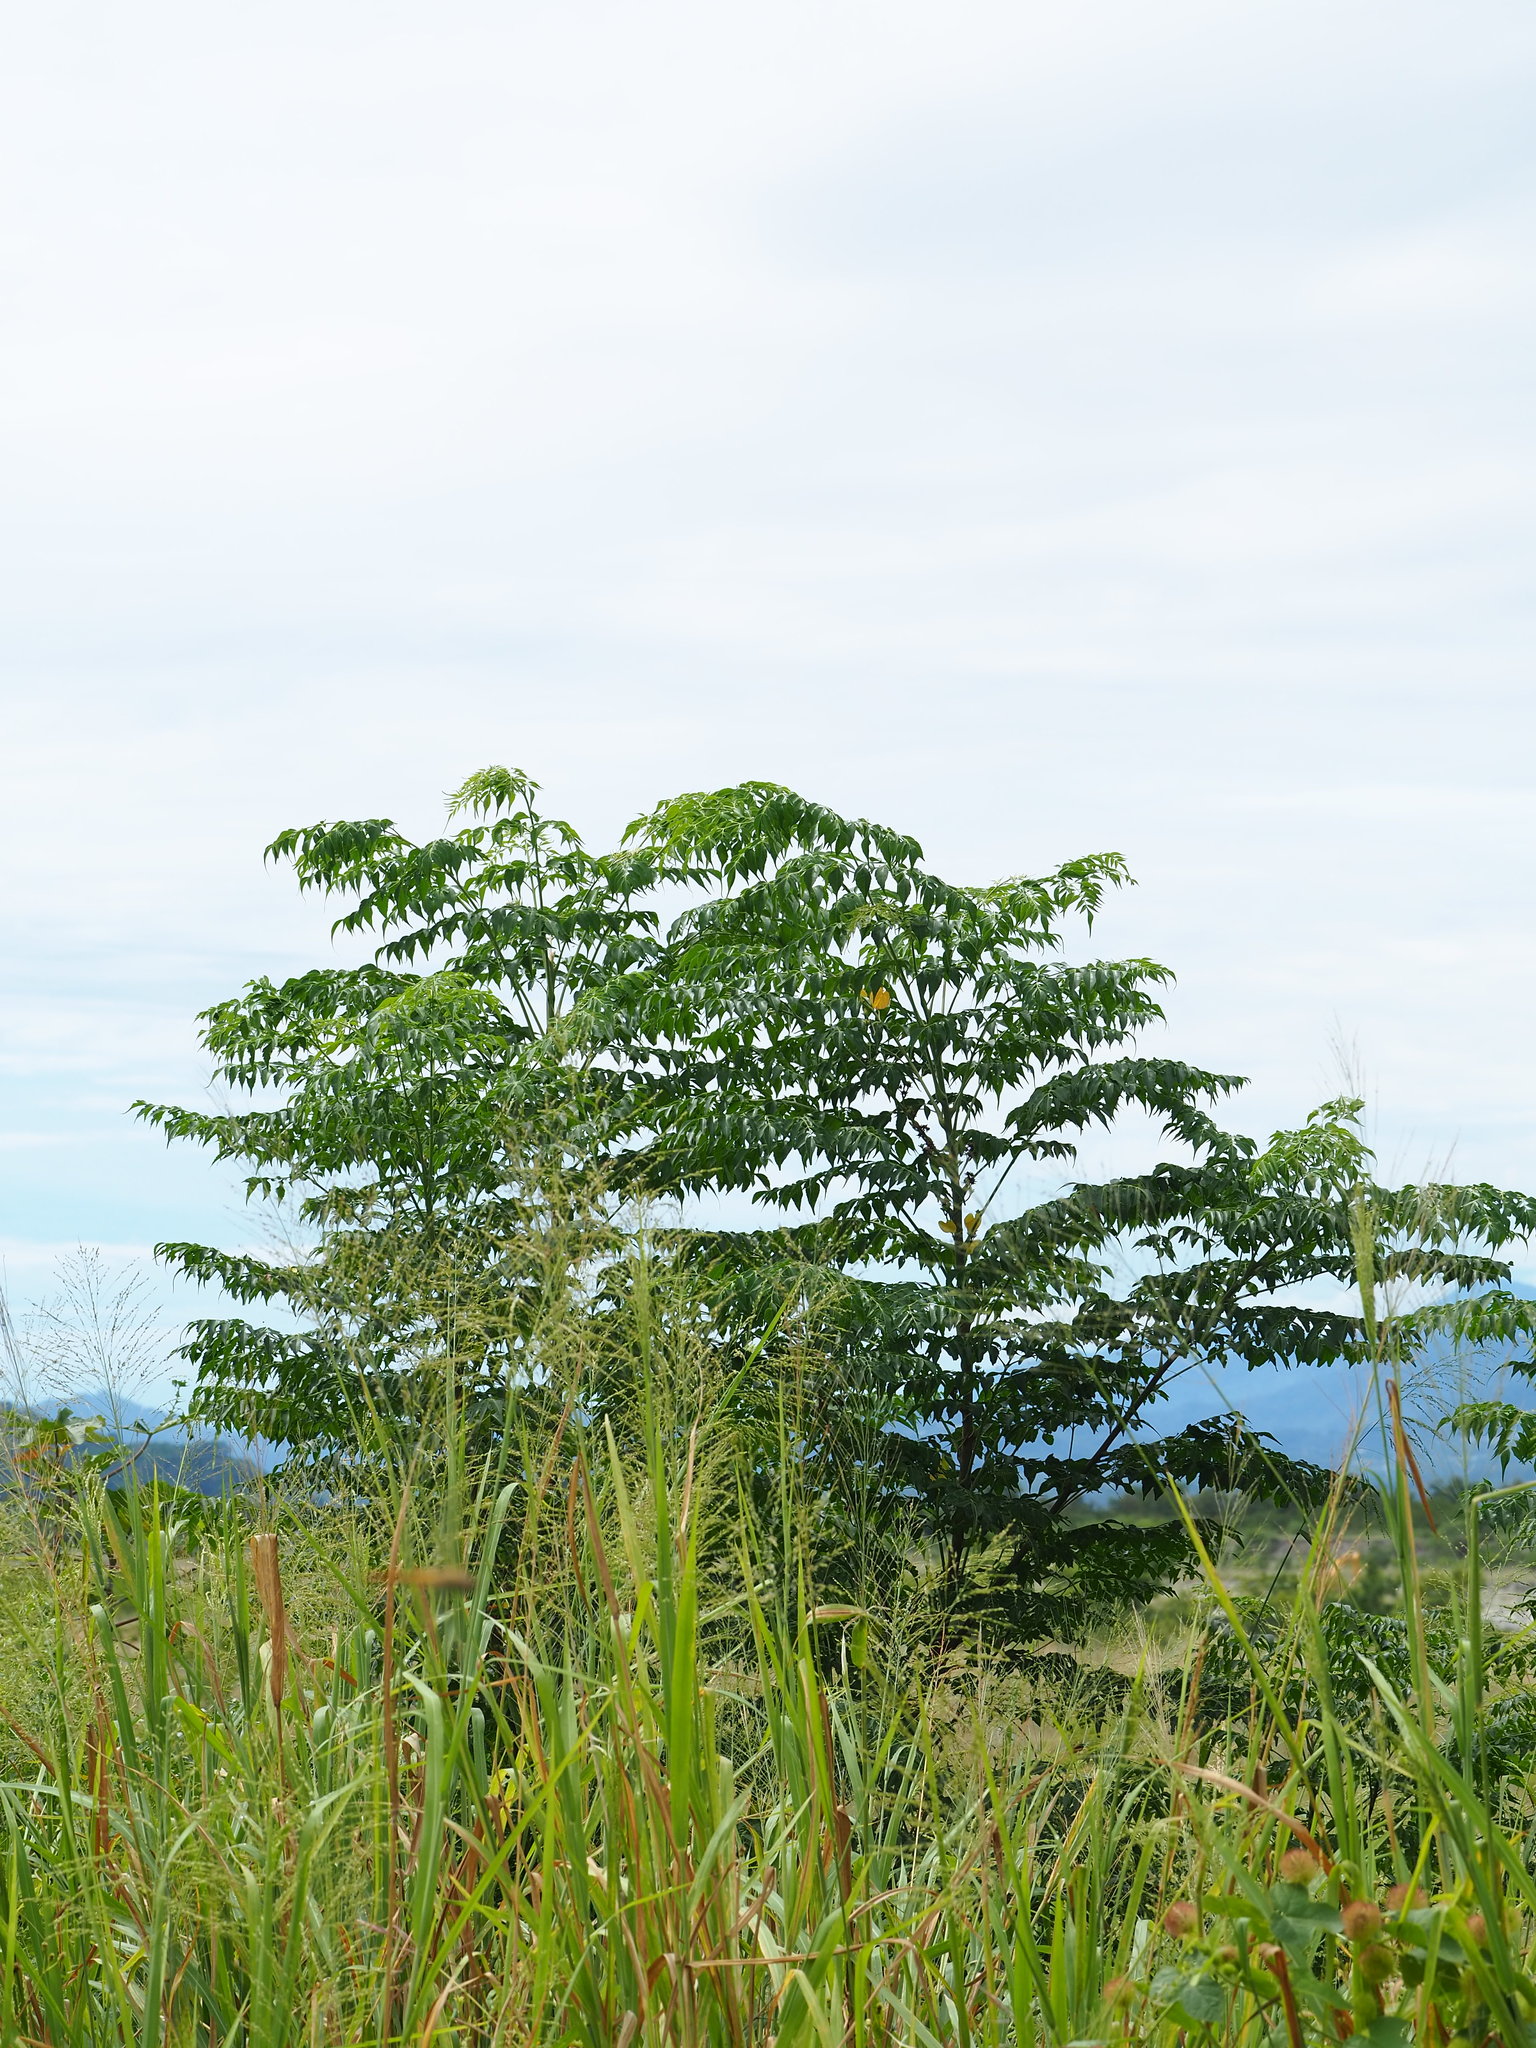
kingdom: Plantae
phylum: Tracheophyta
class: Magnoliopsida
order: Sapindales
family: Meliaceae
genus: Melia
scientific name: Melia azedarach
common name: Chinaberrytree
